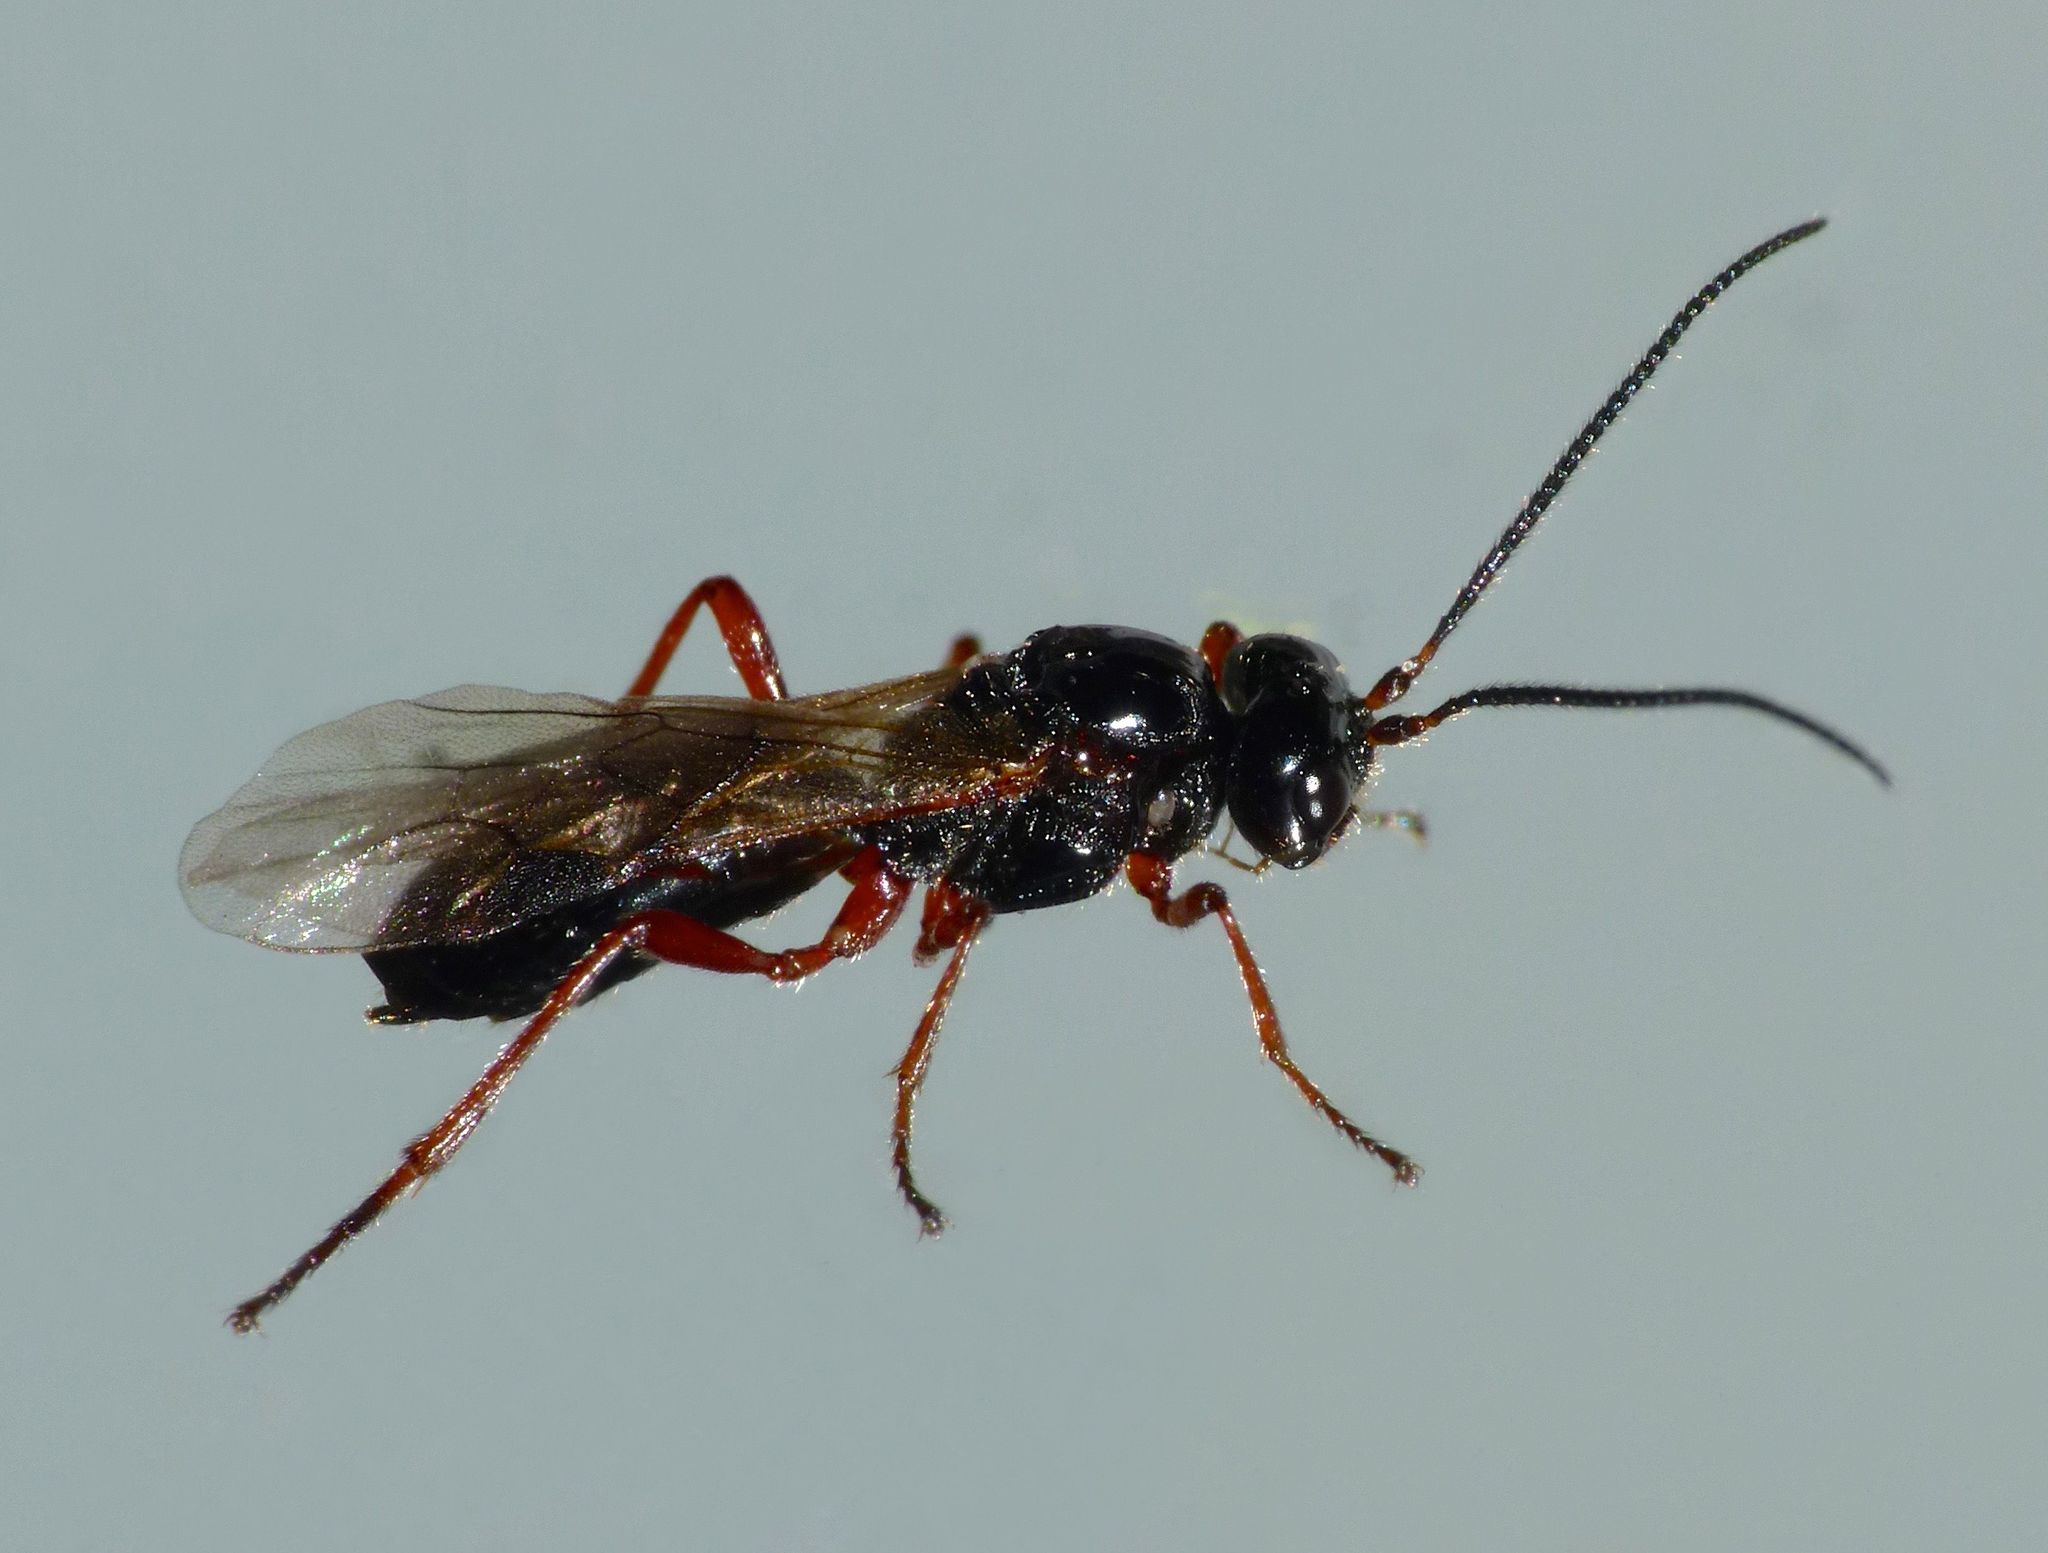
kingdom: Animalia
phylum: Arthropoda
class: Insecta
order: Hymenoptera
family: Braconidae
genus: Alysia
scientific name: Alysia manducator
